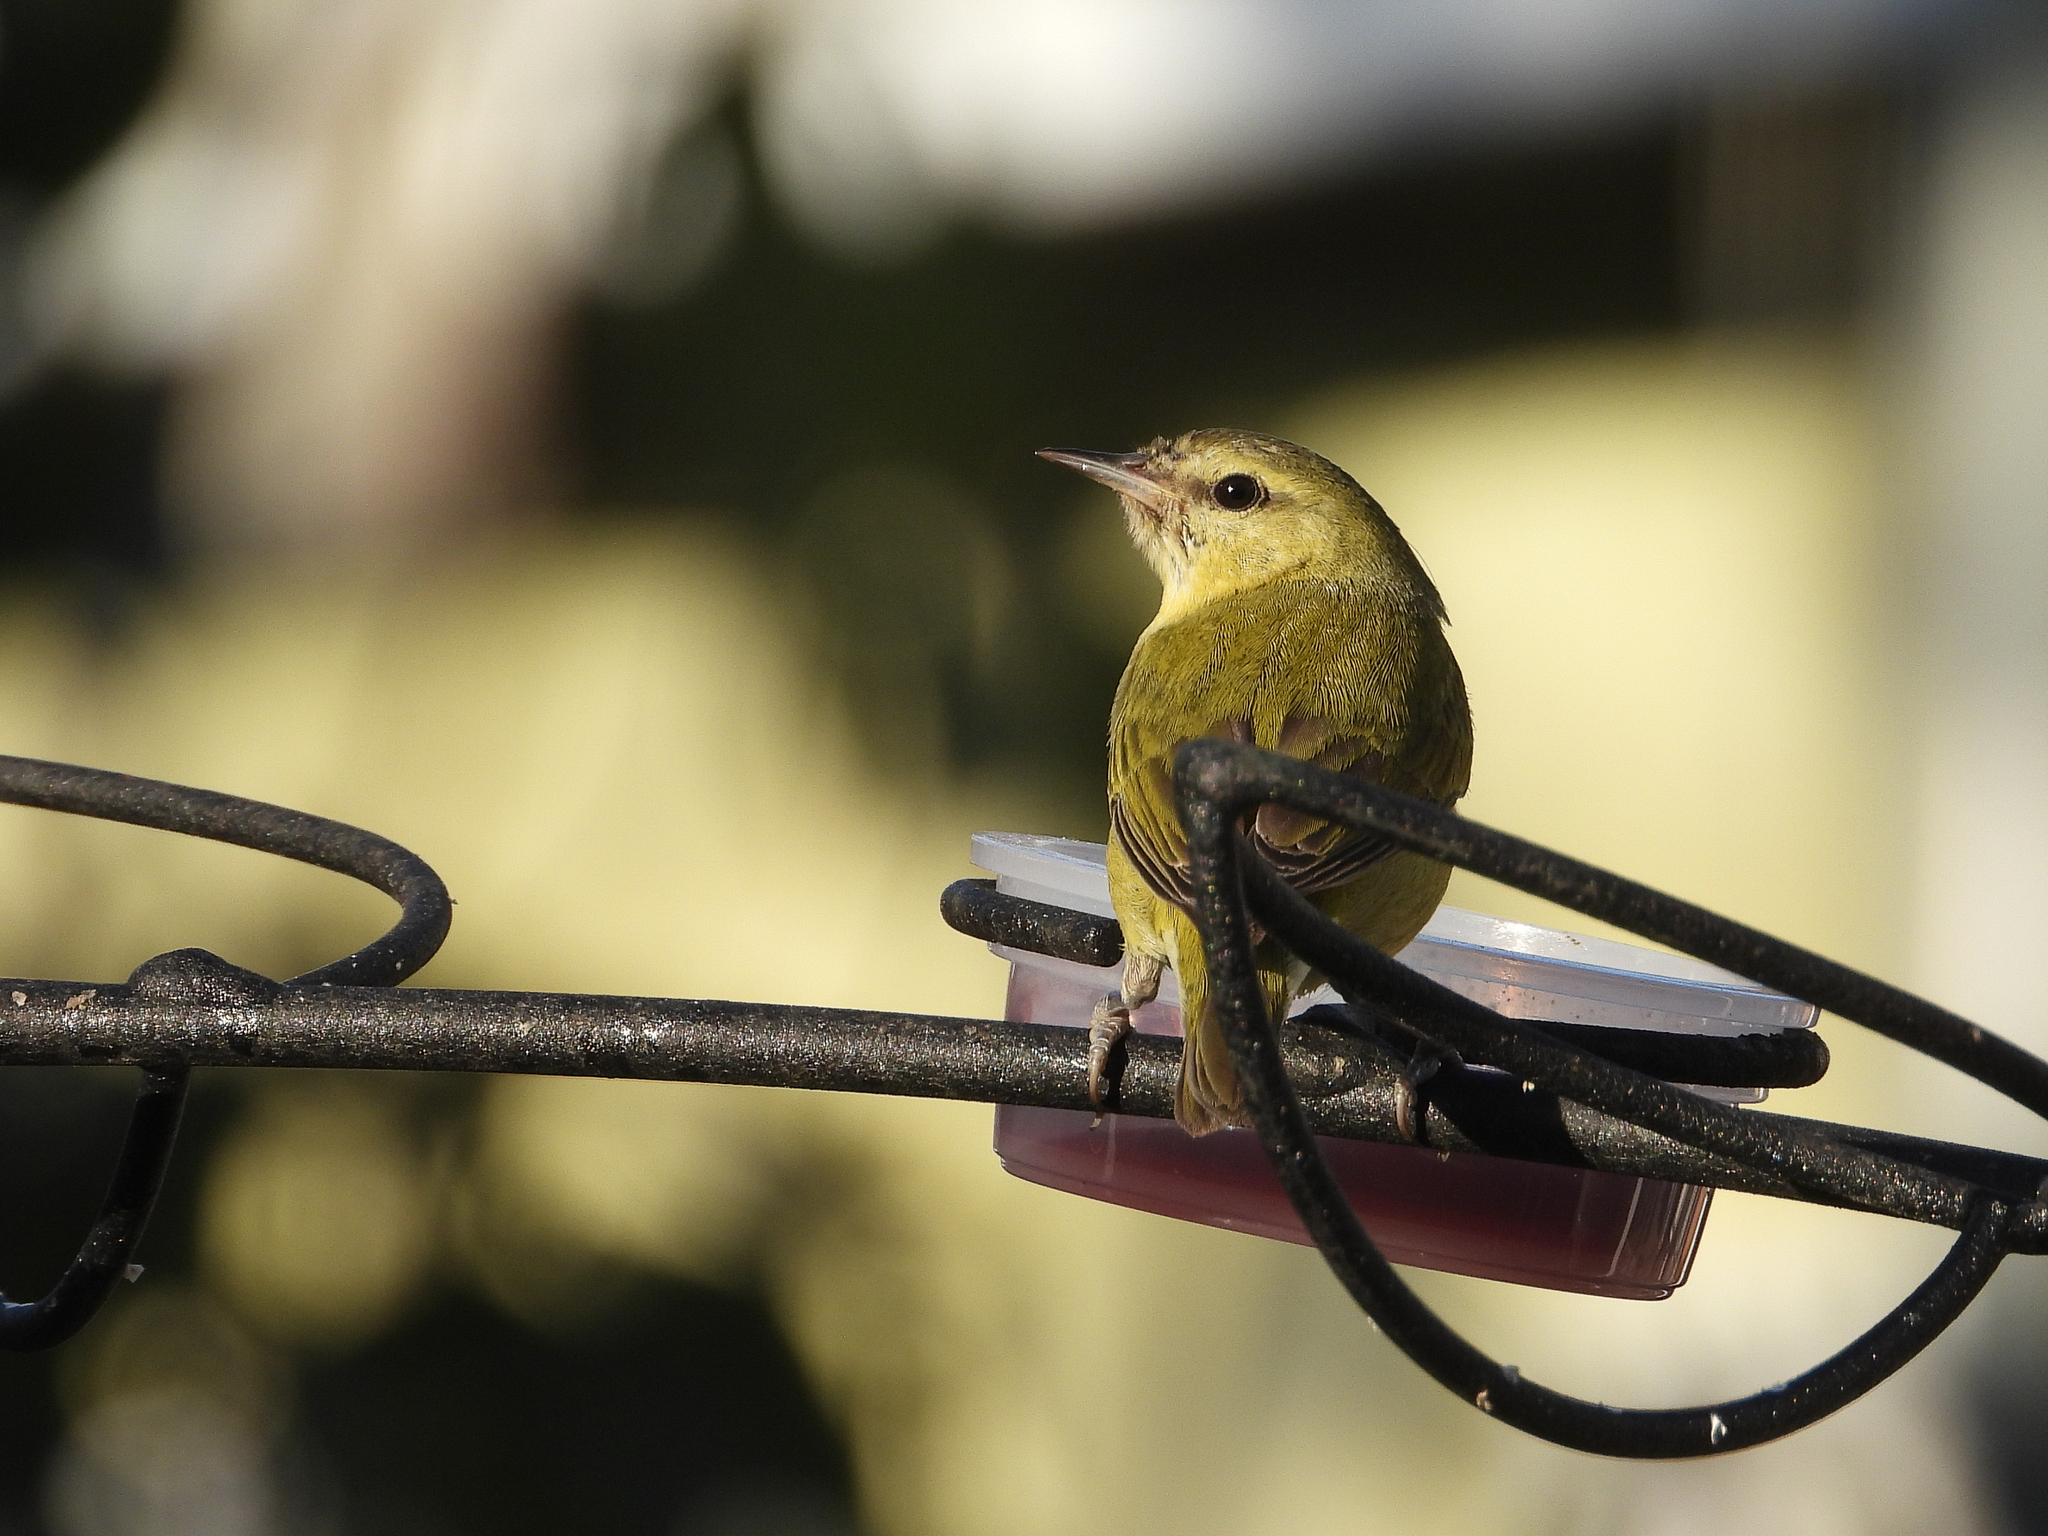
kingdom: Animalia
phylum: Chordata
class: Aves
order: Passeriformes
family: Parulidae
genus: Leiothlypis
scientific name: Leiothlypis peregrina
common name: Tennessee warbler
